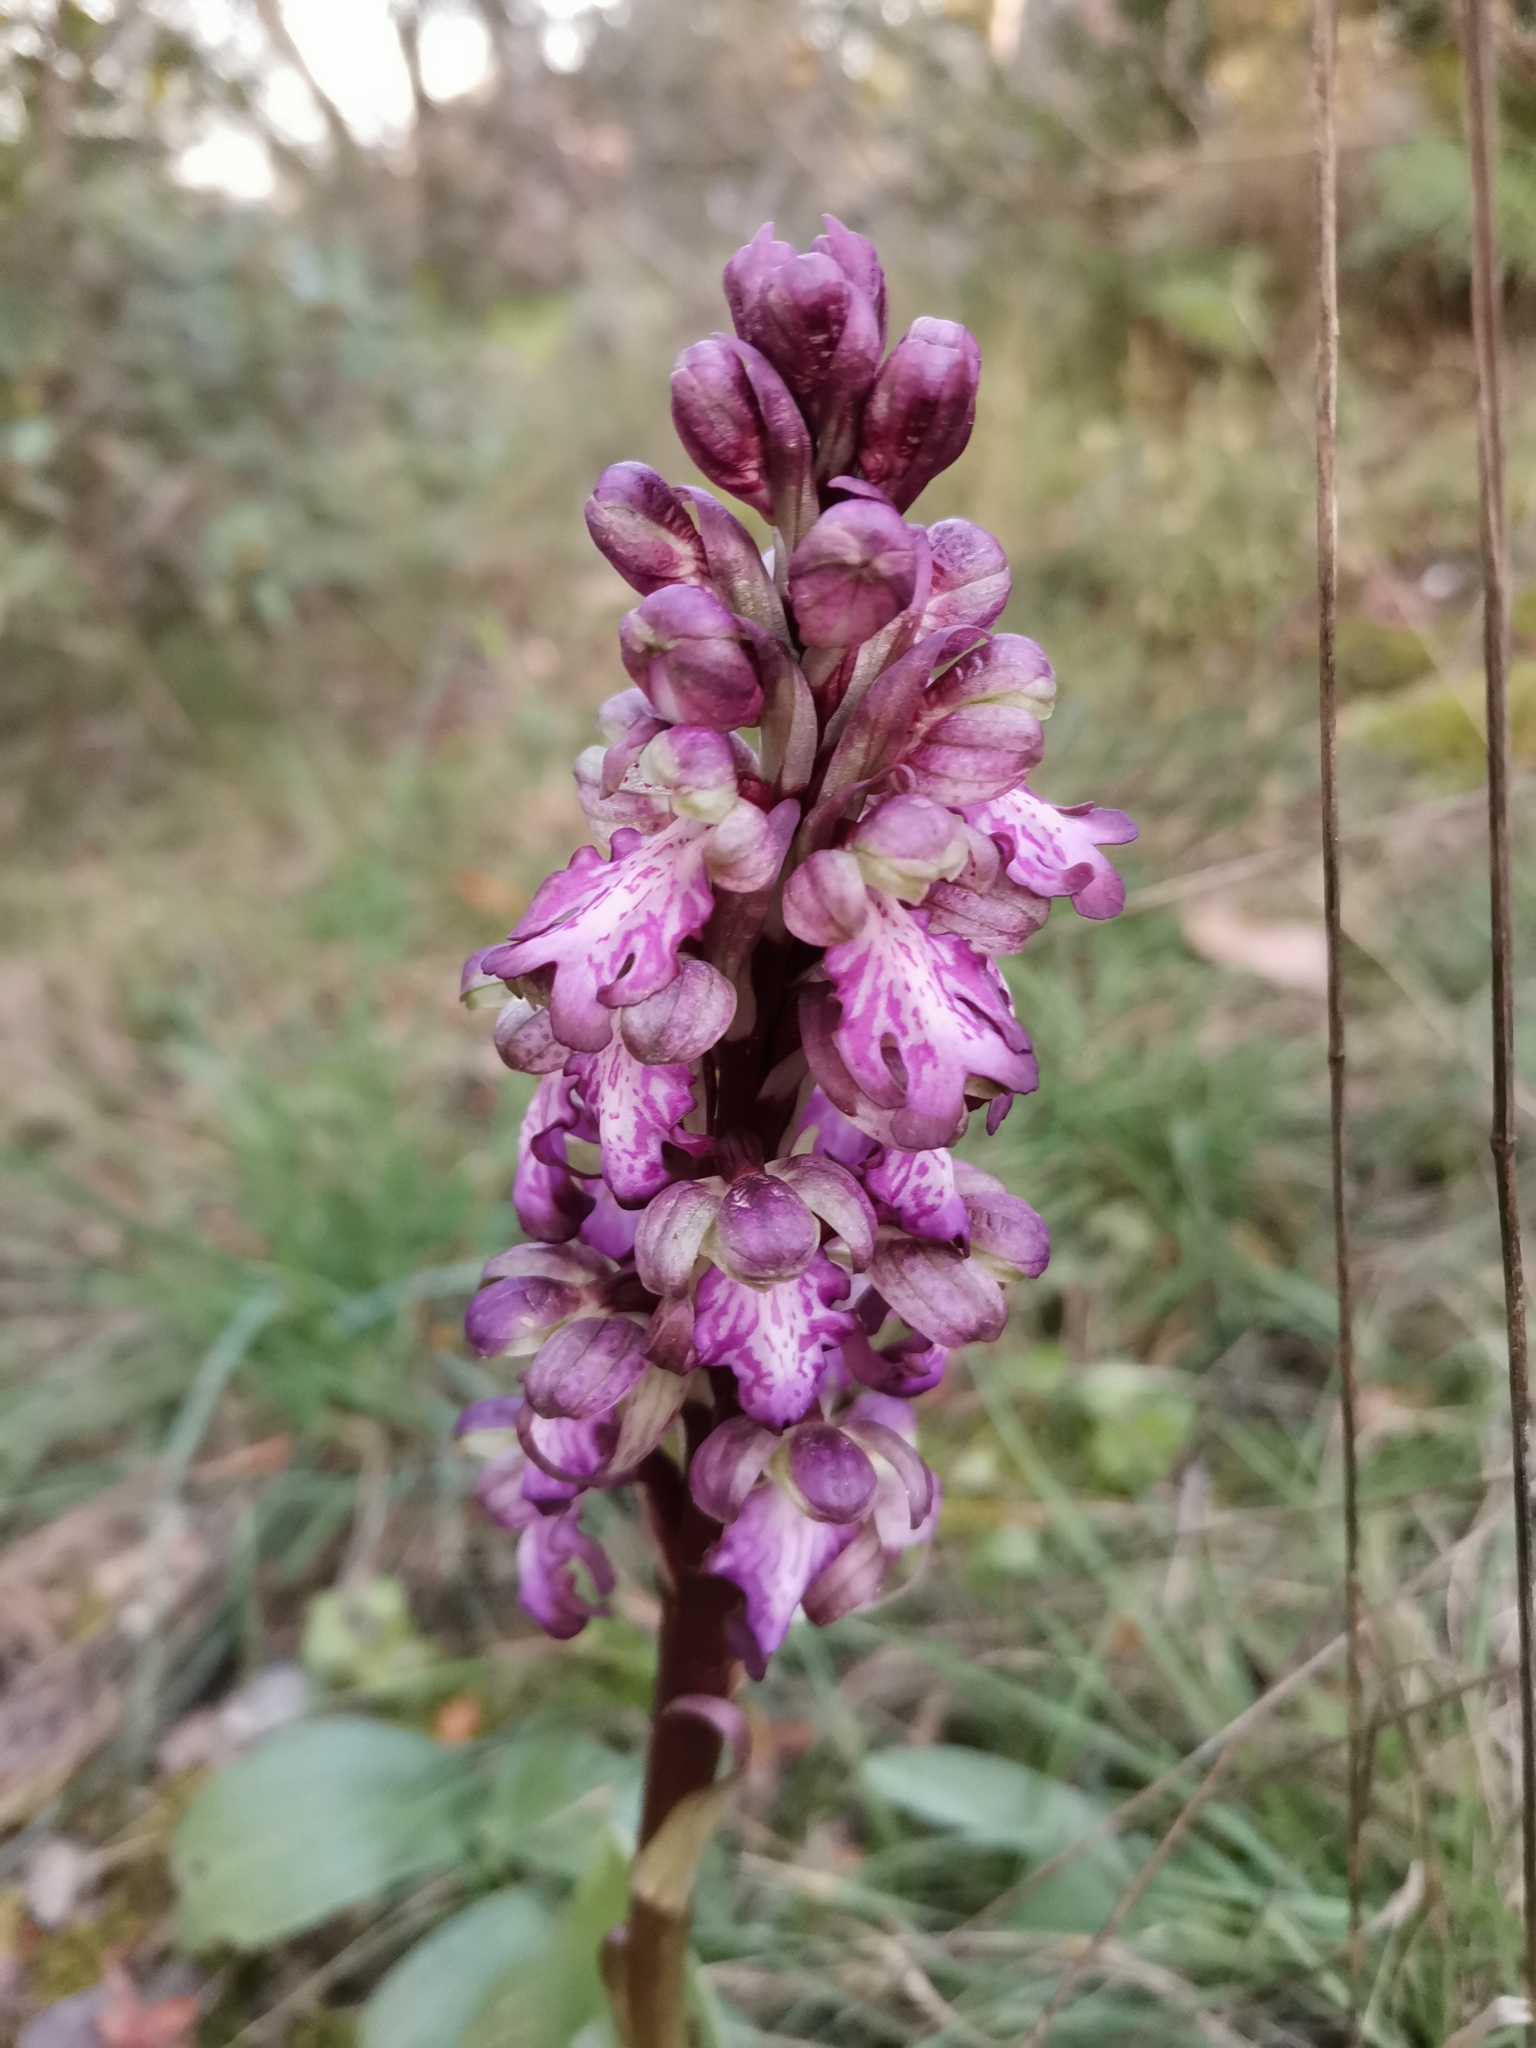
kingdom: Plantae
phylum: Tracheophyta
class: Liliopsida
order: Asparagales
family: Orchidaceae
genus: Himantoglossum
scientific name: Himantoglossum robertianum
